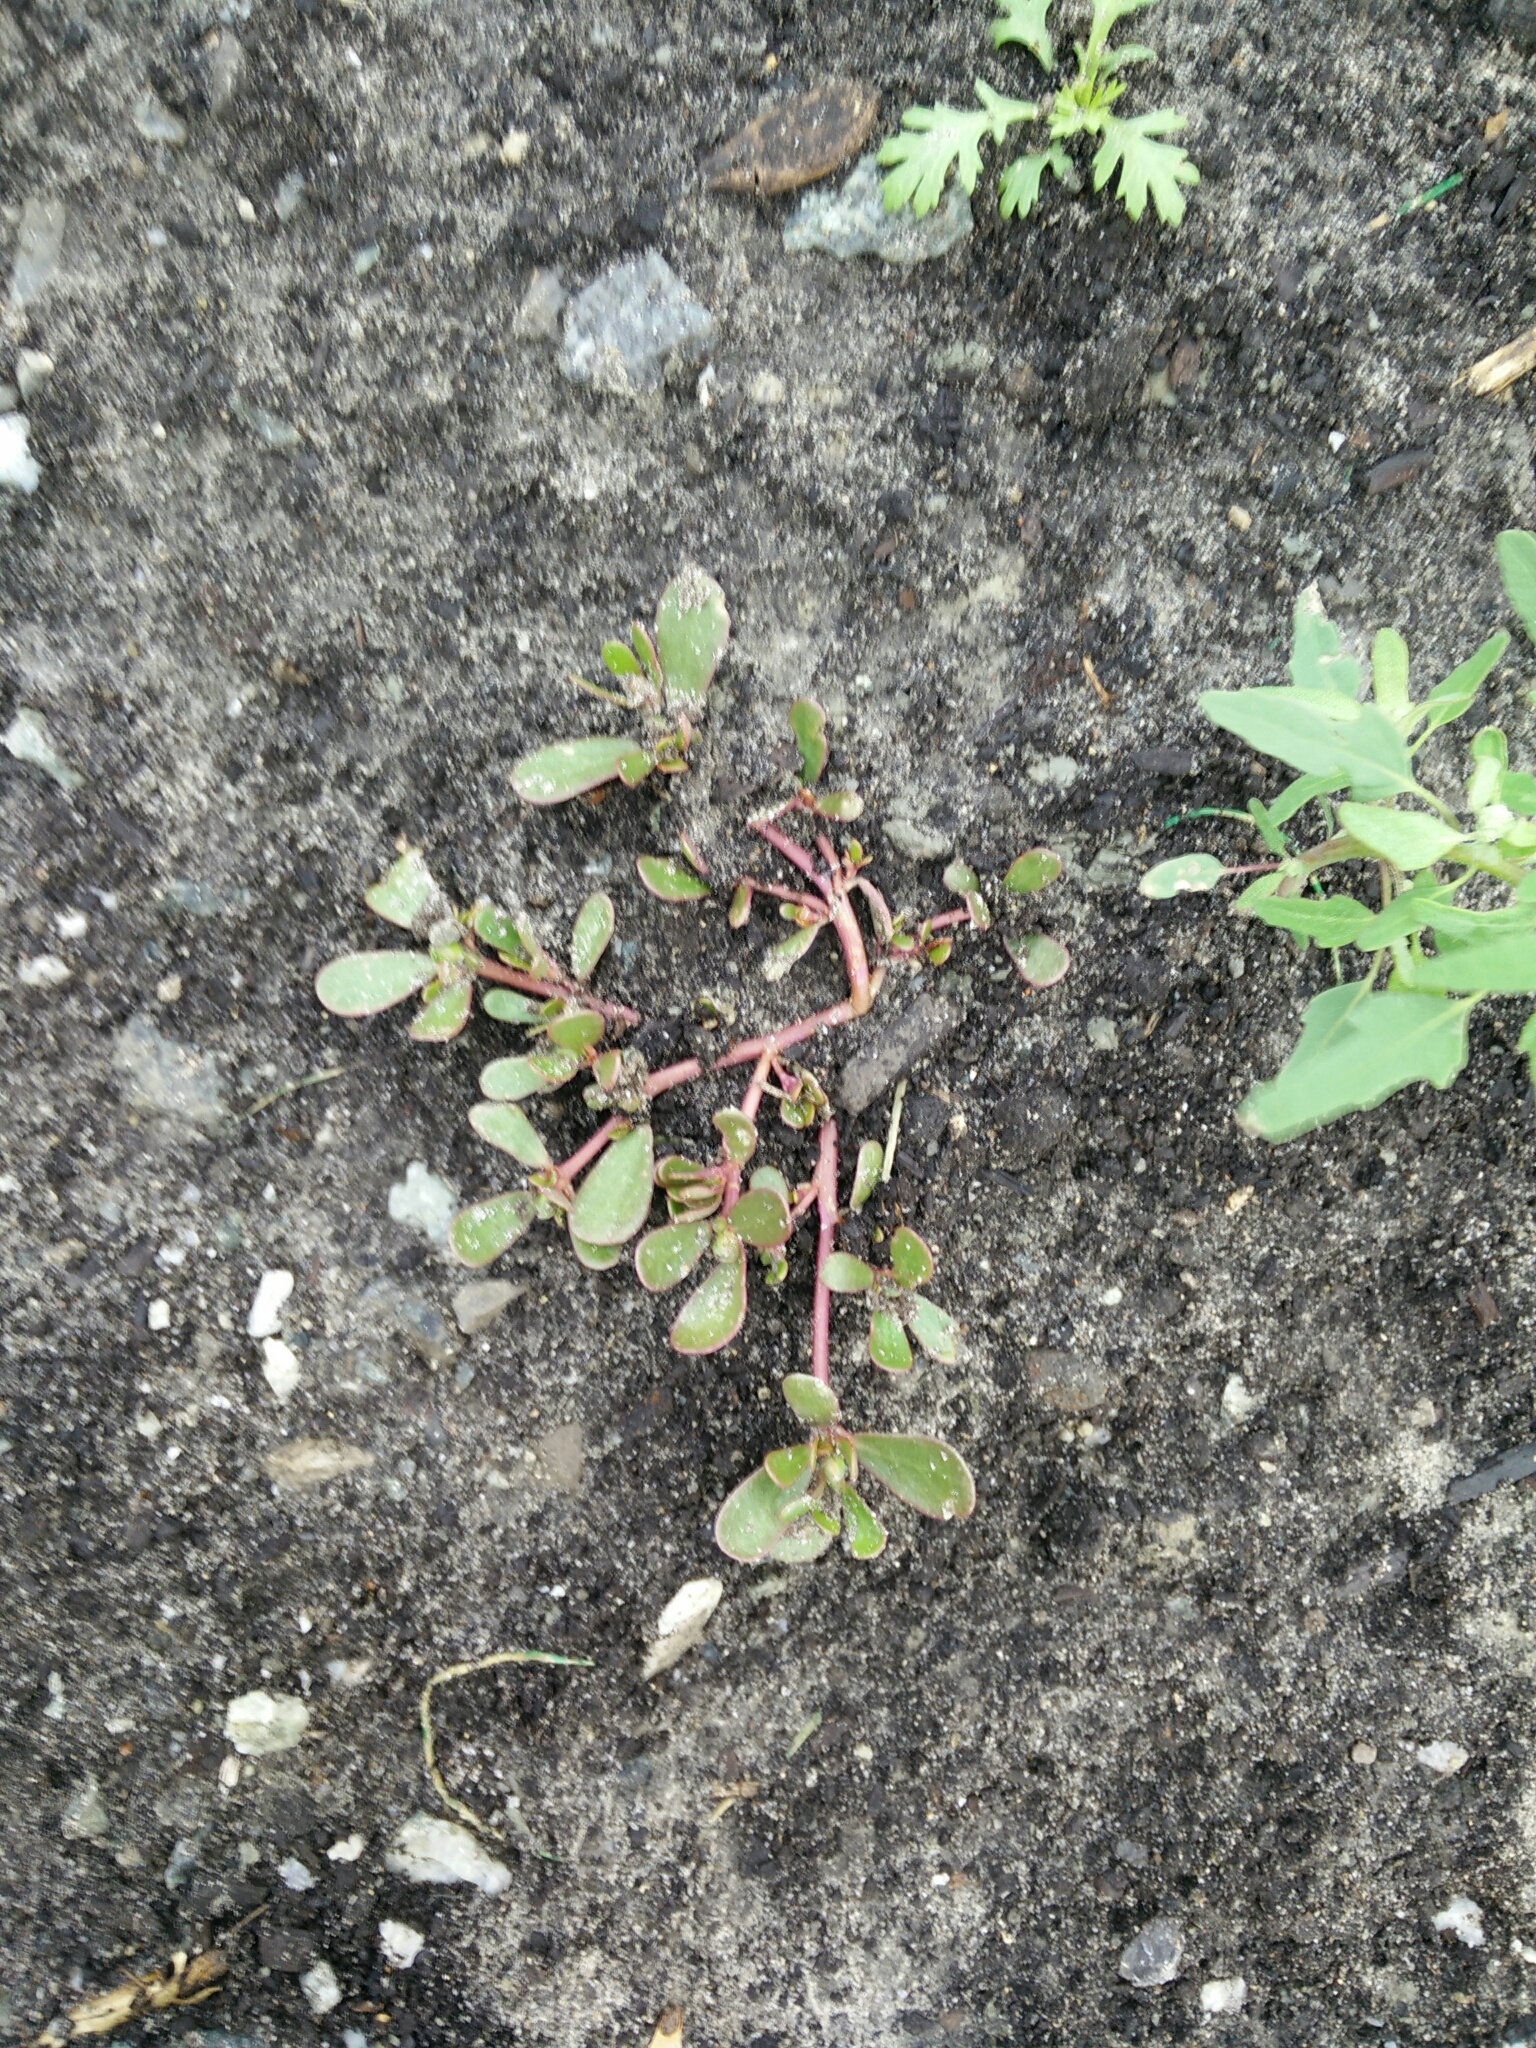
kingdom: Plantae
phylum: Tracheophyta
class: Magnoliopsida
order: Caryophyllales
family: Portulacaceae
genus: Portulaca
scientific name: Portulaca oleracea
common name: Common purslane
